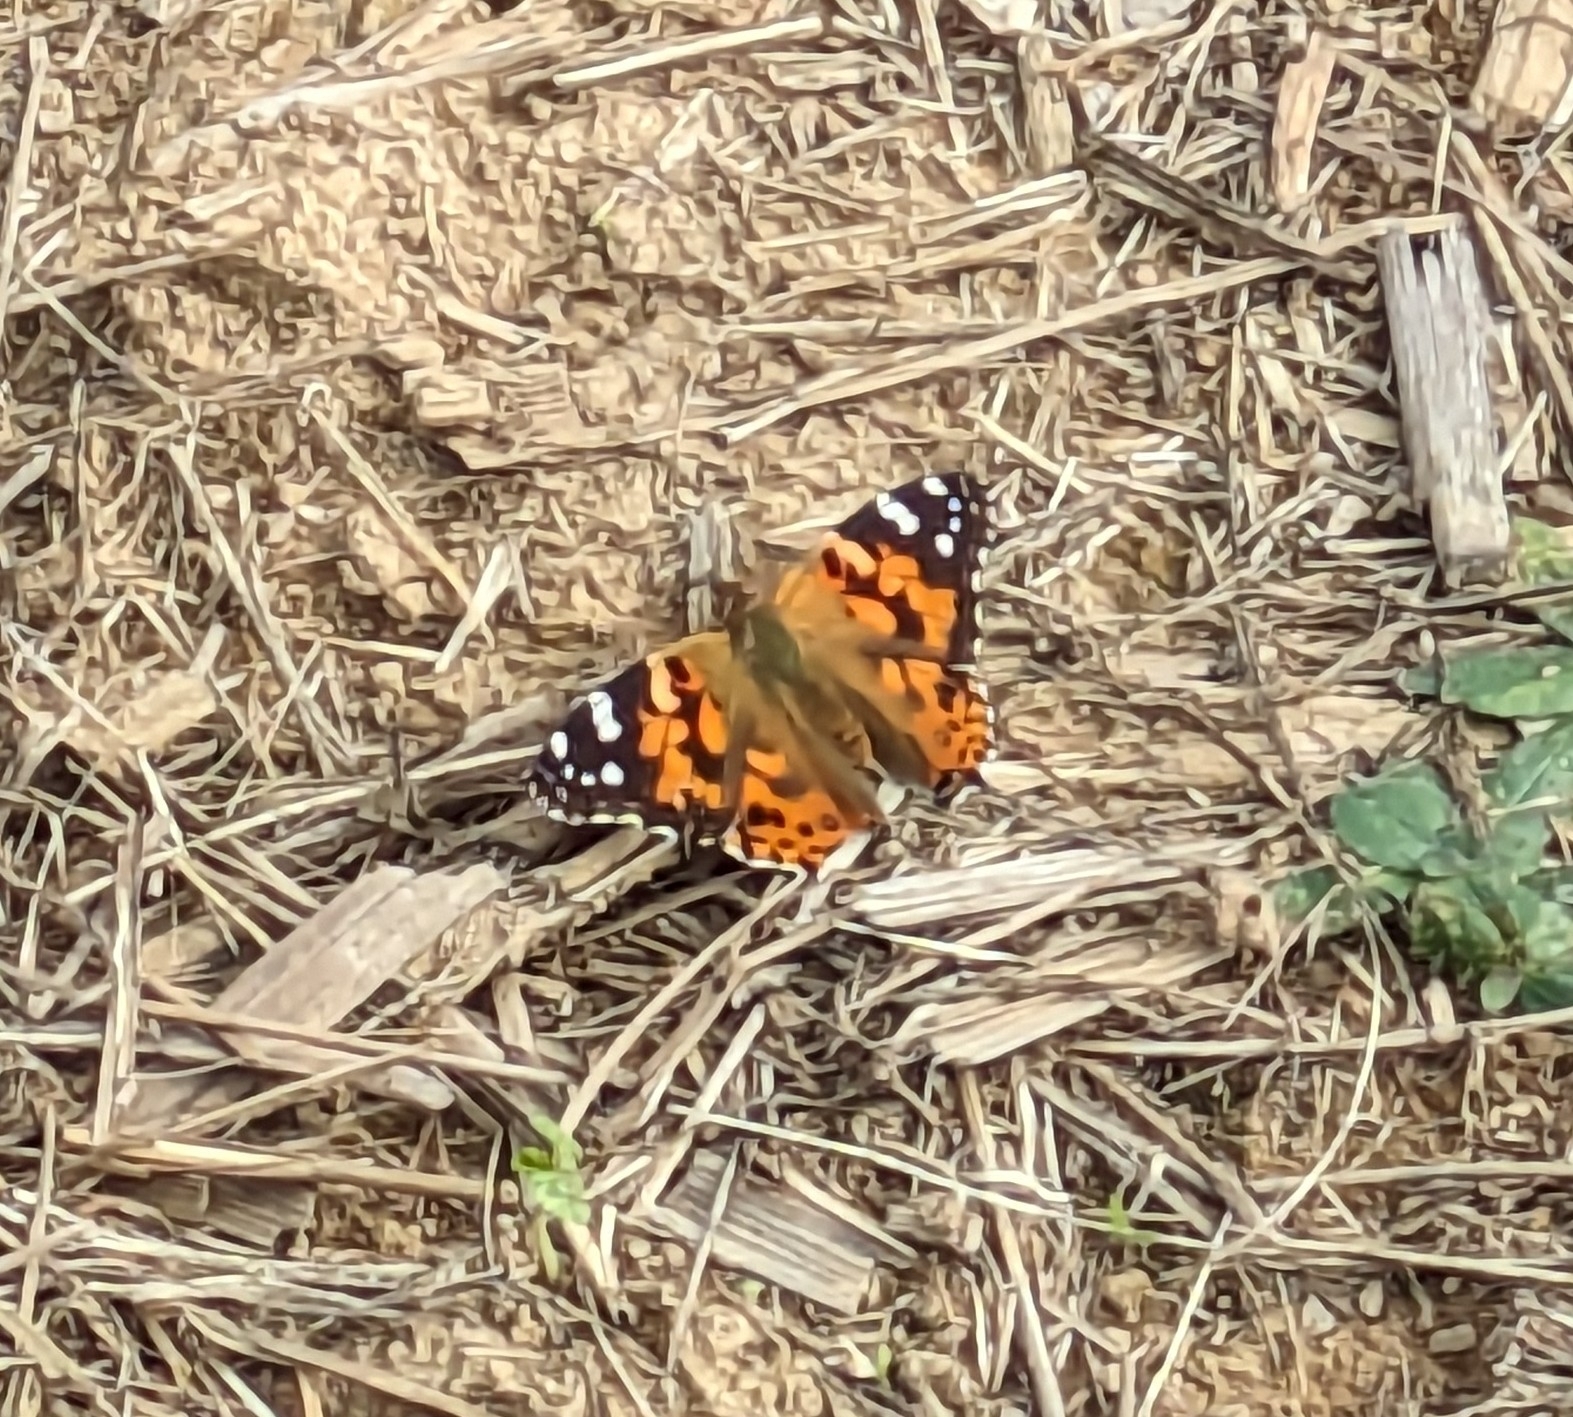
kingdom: Animalia
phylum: Arthropoda
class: Insecta
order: Lepidoptera
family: Nymphalidae
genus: Vanessa
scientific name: Vanessa cardui
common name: Painted lady
